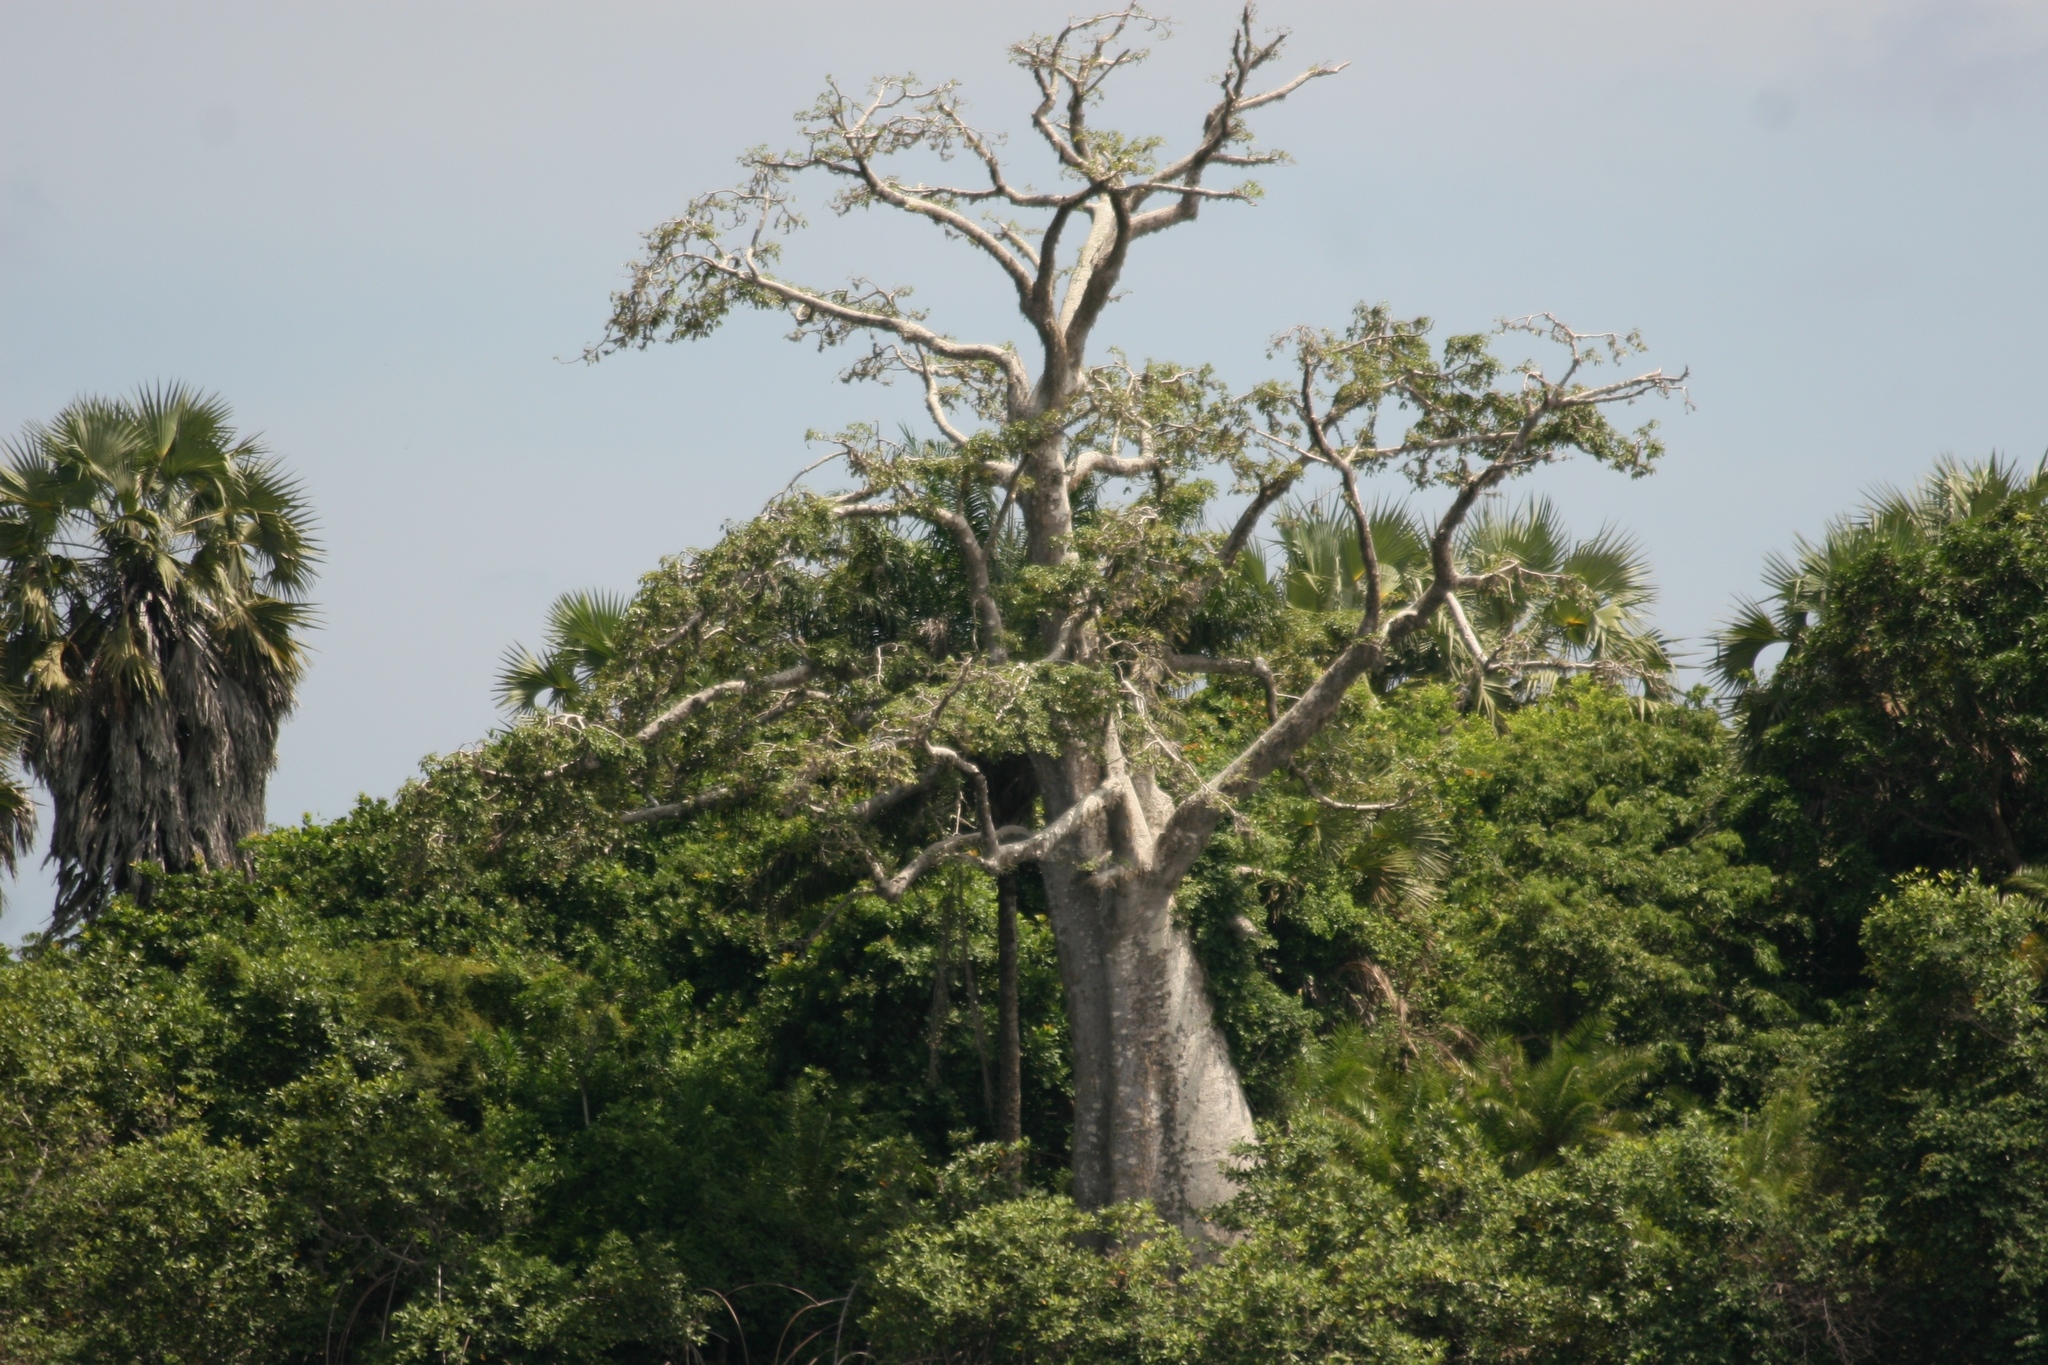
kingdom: Plantae
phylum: Tracheophyta
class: Magnoliopsida
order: Malvales
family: Malvaceae
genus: Adansonia
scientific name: Adansonia digitata
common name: Dead-rat-tree
